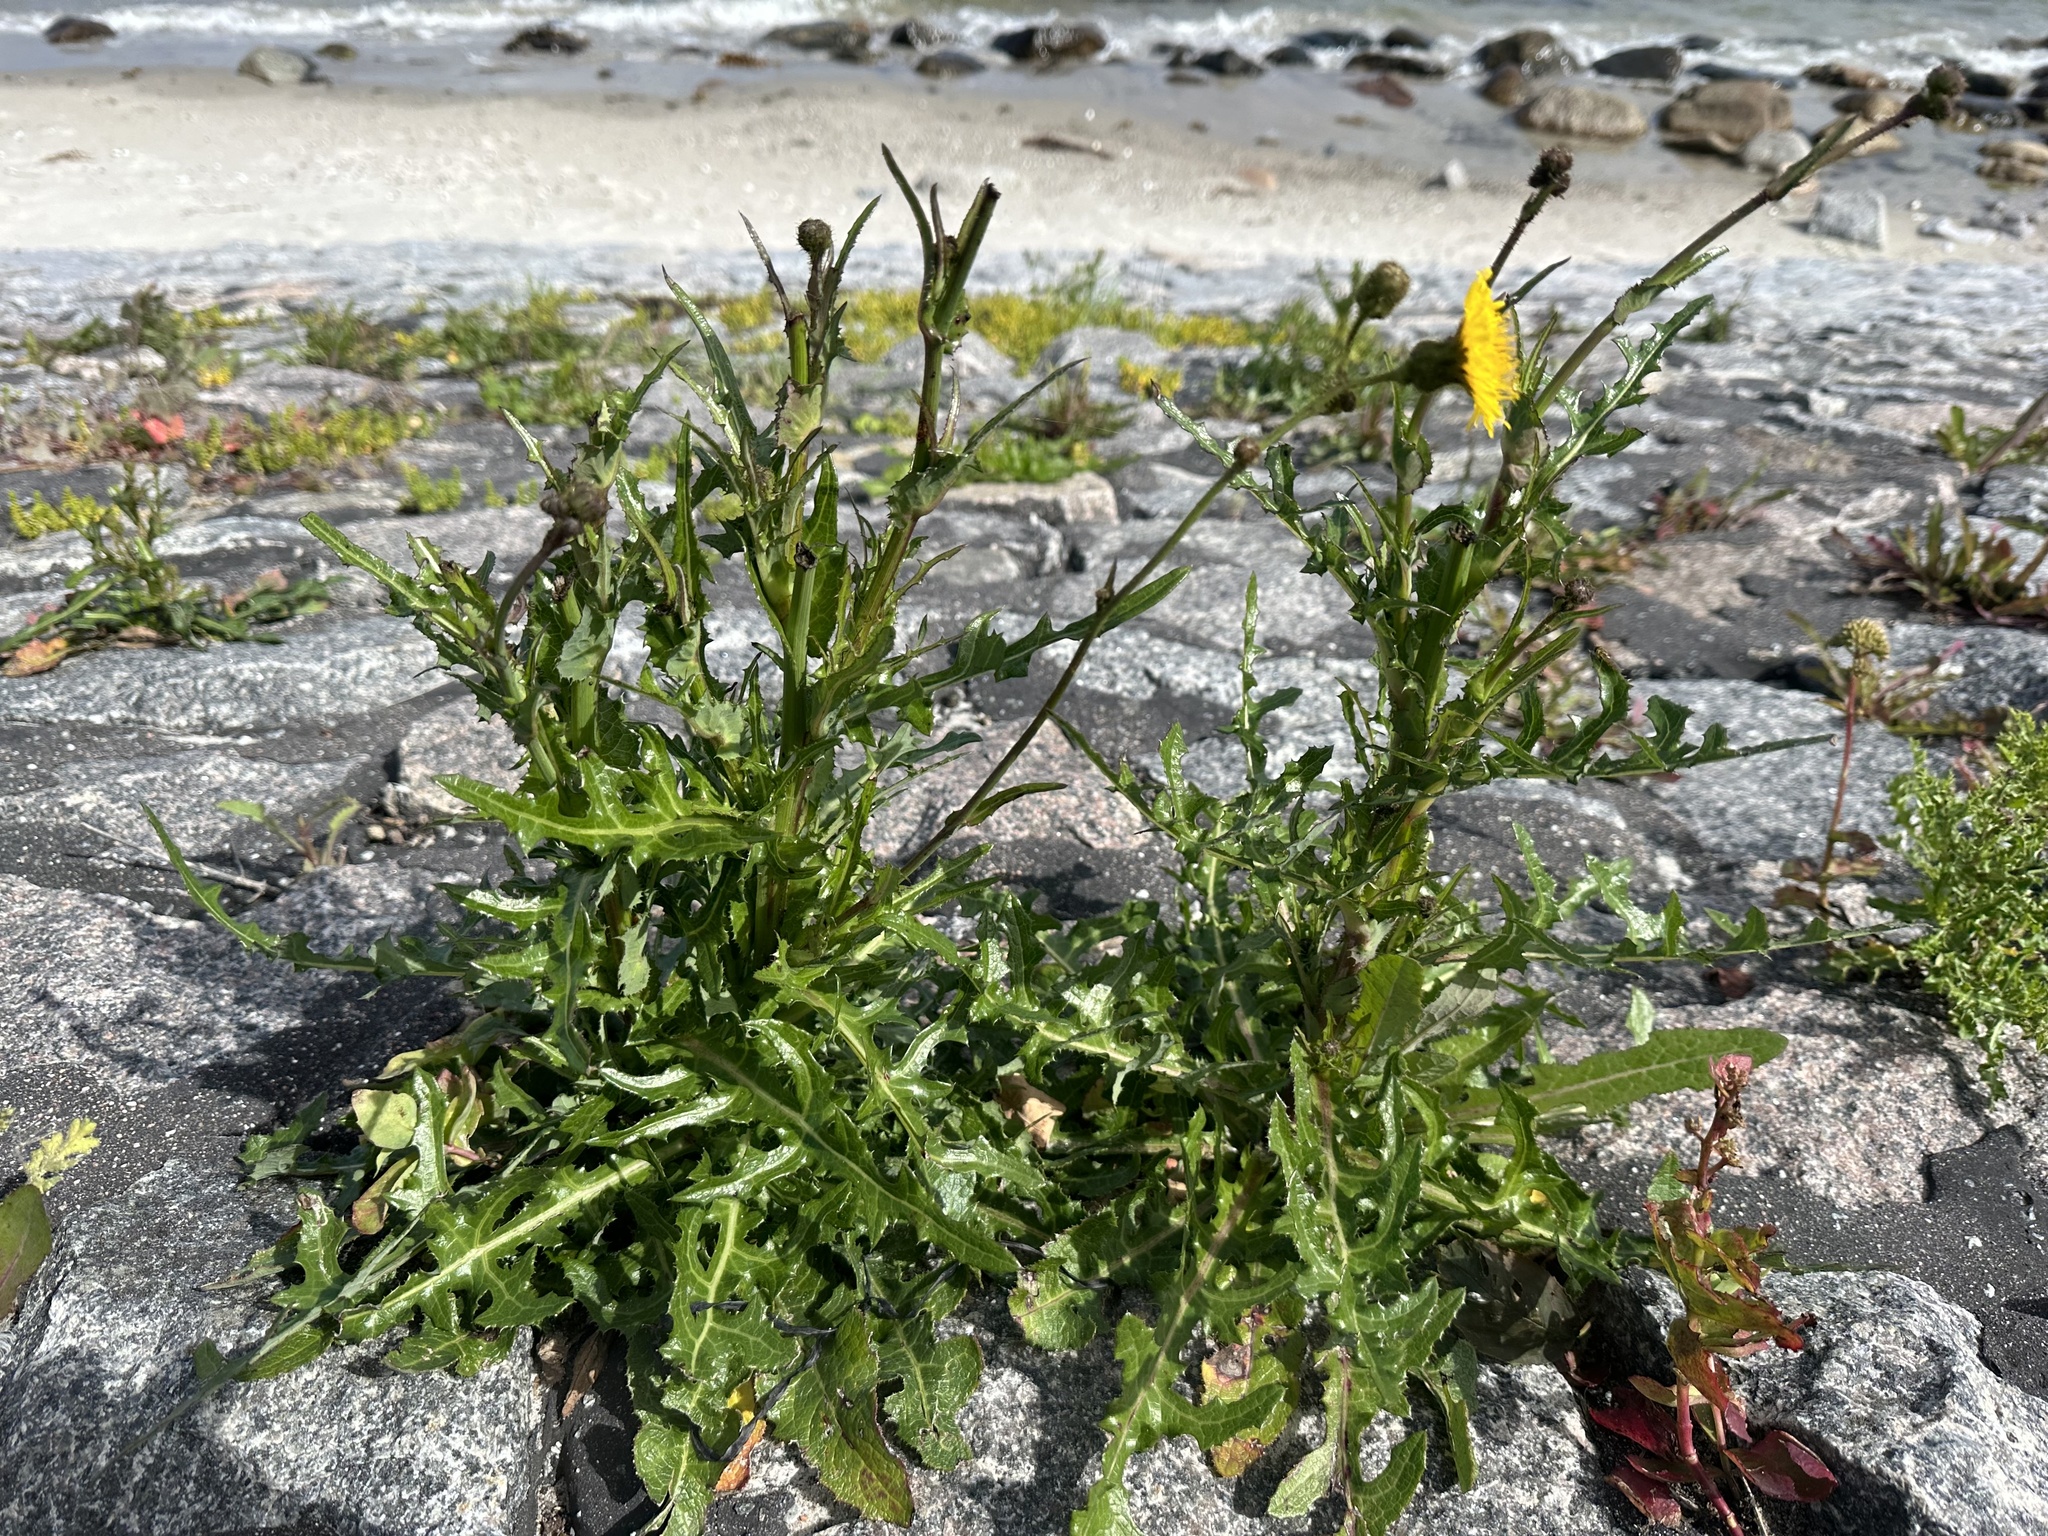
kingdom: Plantae
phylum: Tracheophyta
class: Magnoliopsida
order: Asterales
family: Asteraceae
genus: Sonchus
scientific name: Sonchus arvensis
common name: Perennial sow-thistle
